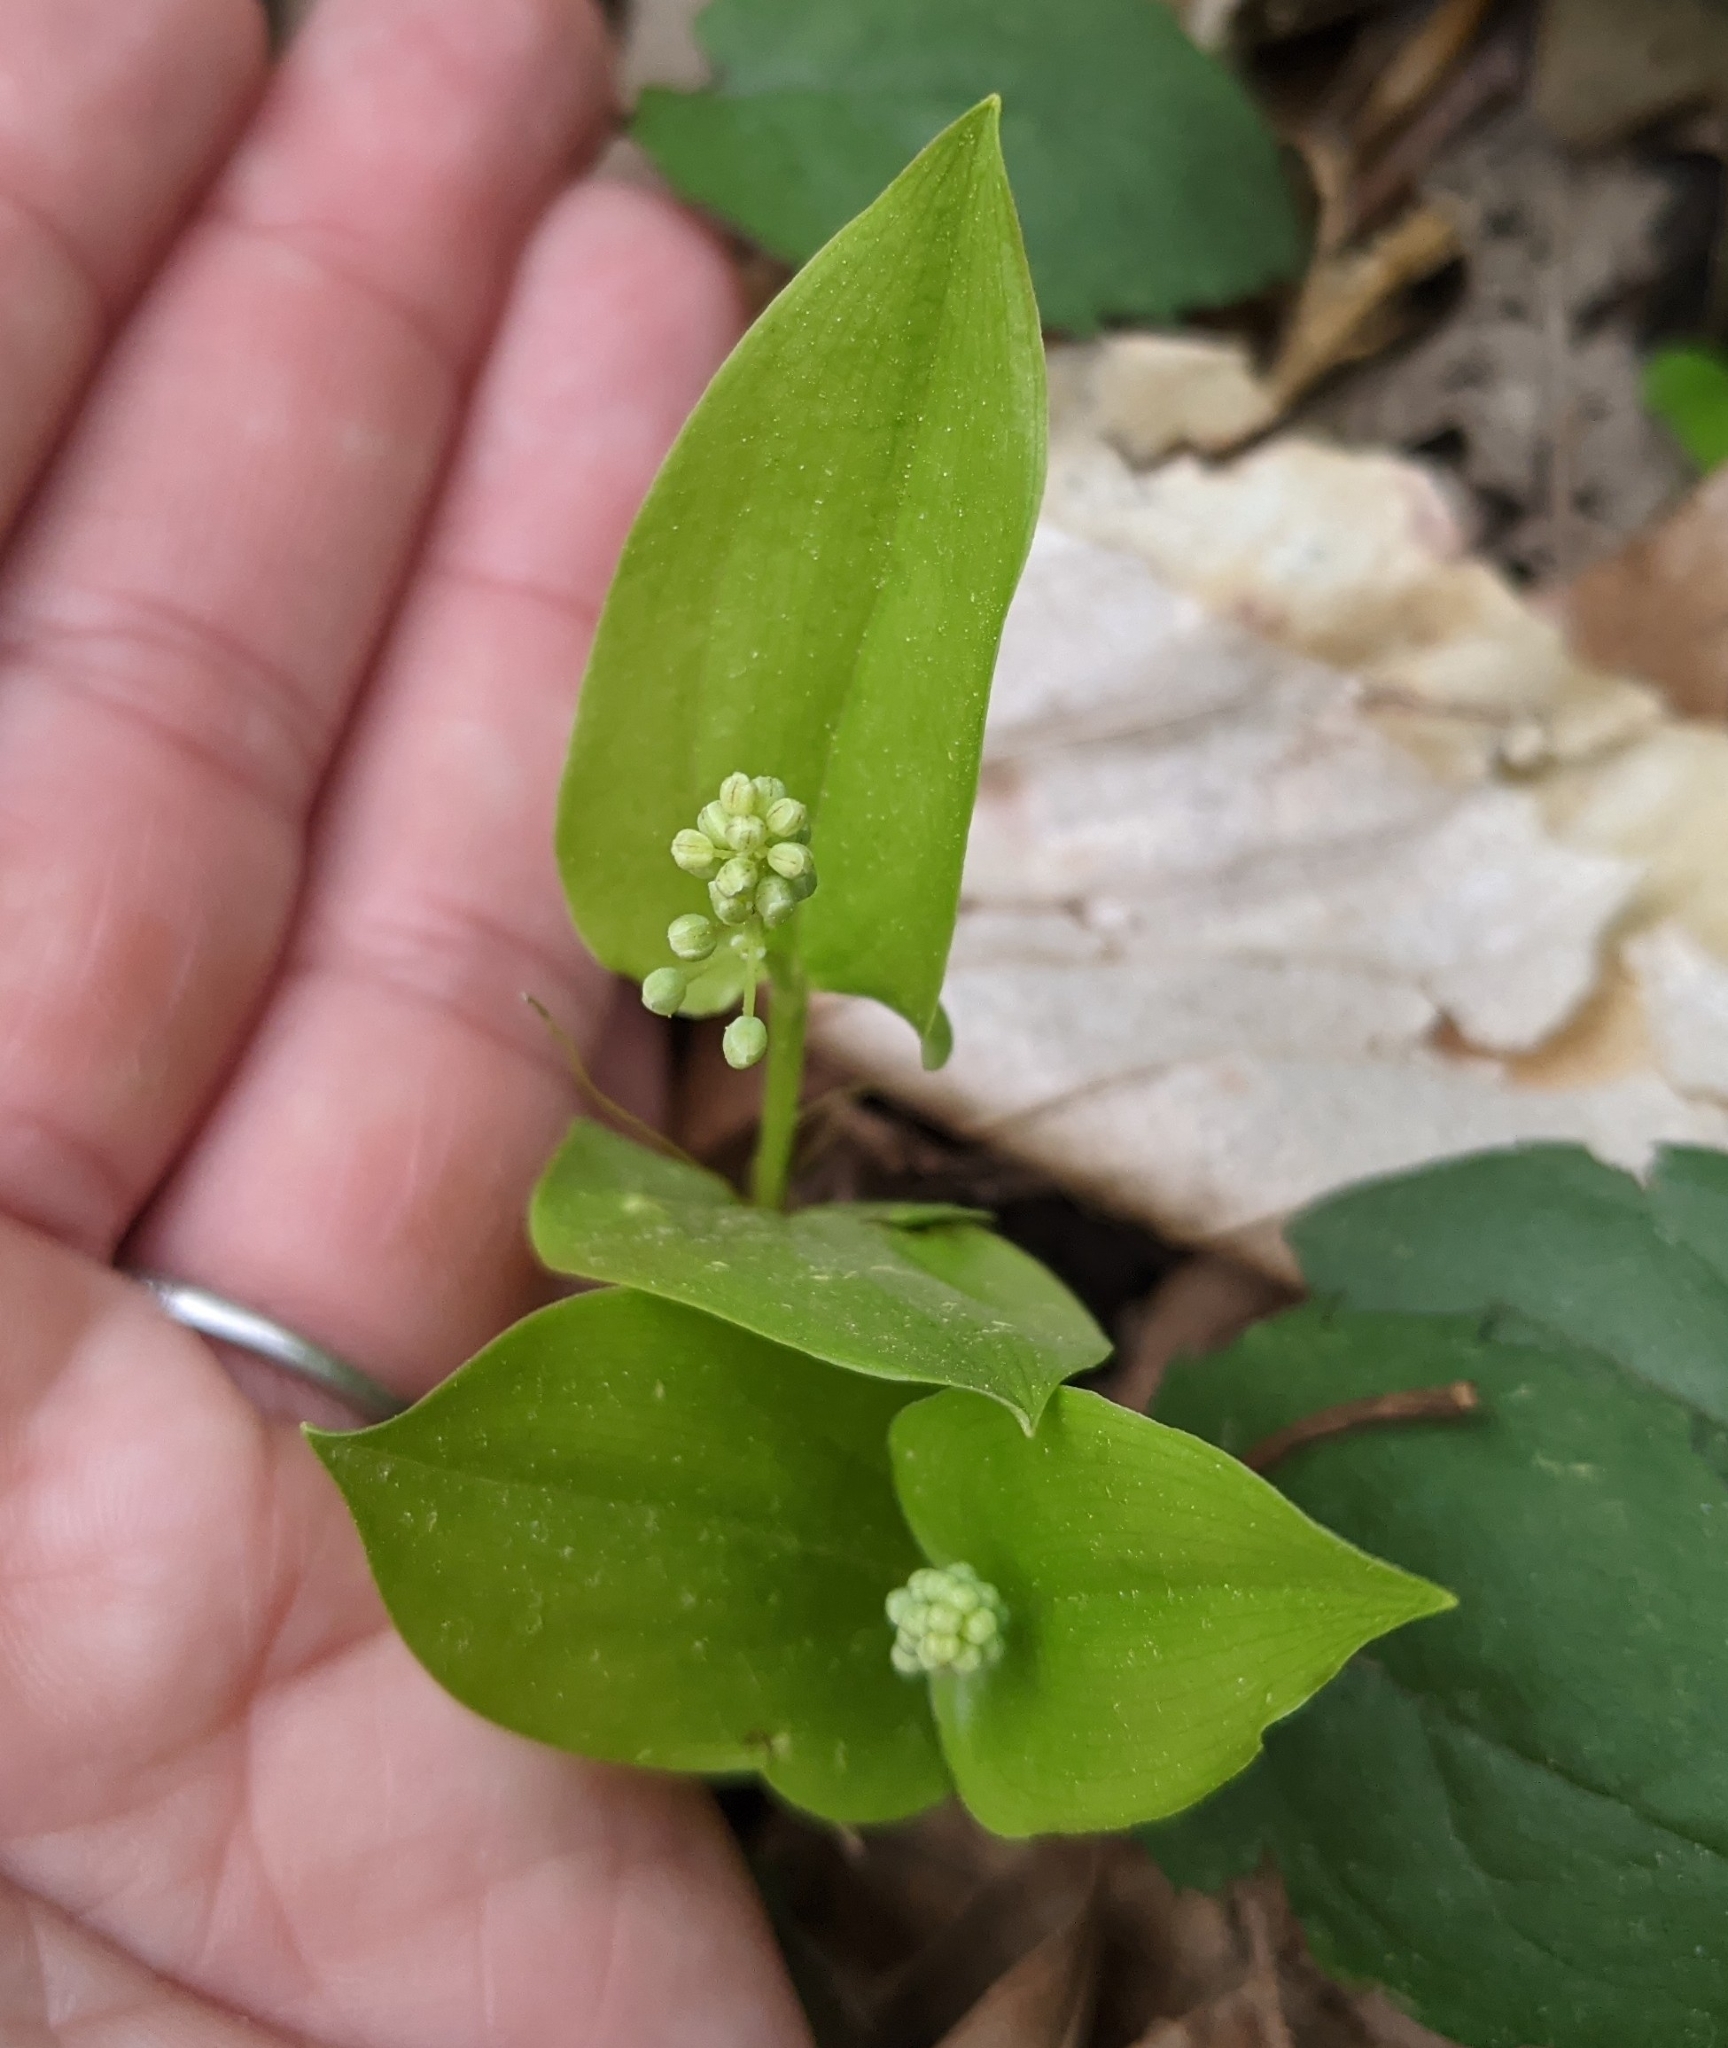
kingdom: Plantae
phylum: Tracheophyta
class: Liliopsida
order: Asparagales
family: Asparagaceae
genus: Maianthemum
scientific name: Maianthemum canadense
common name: False lily-of-the-valley
